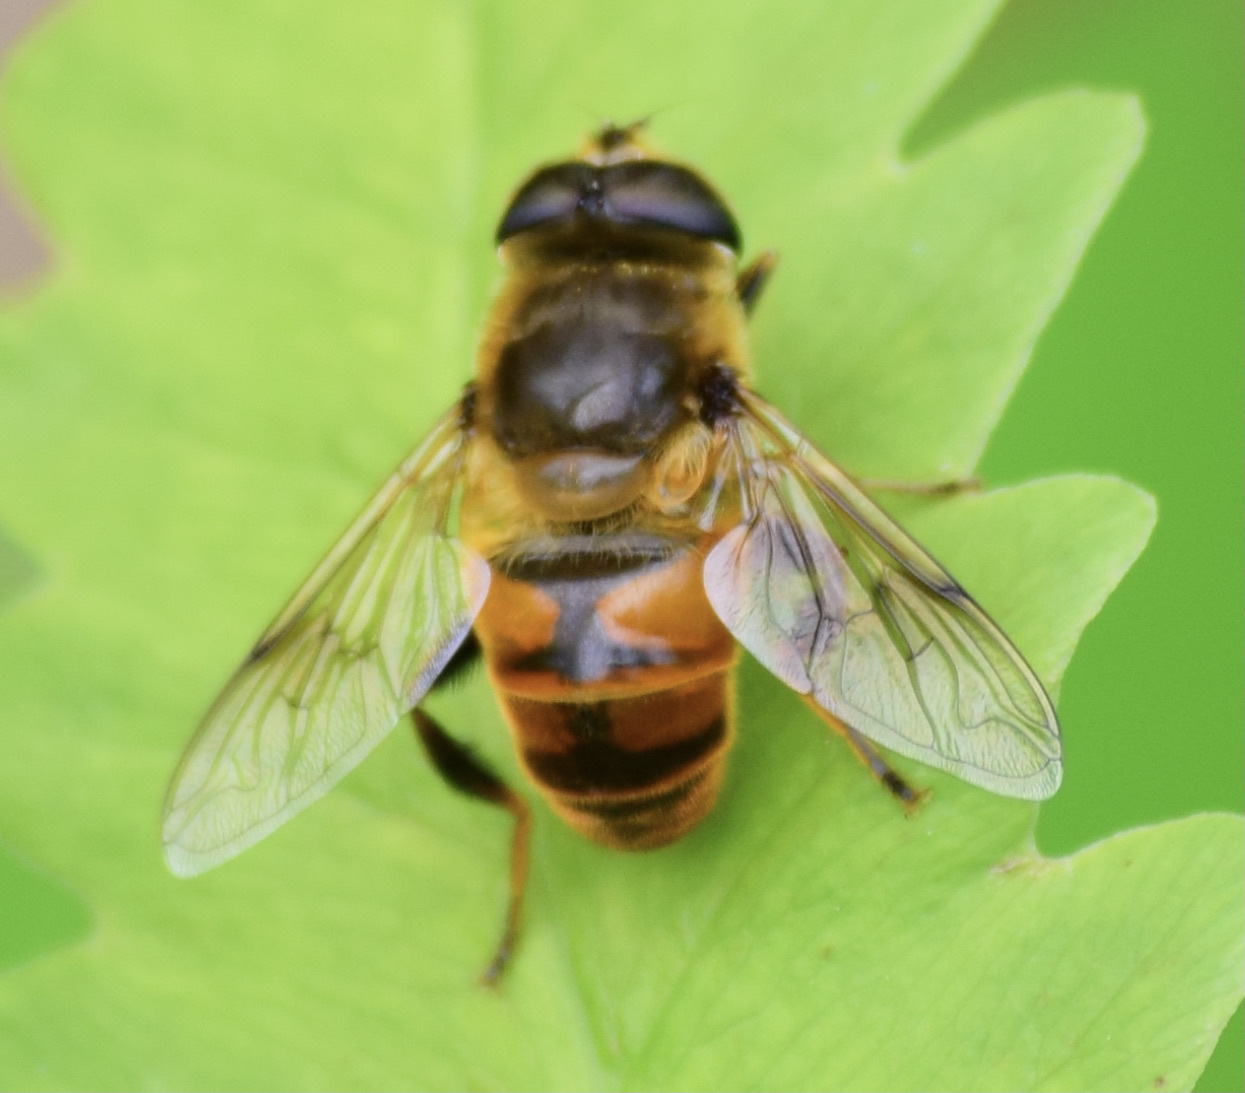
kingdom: Animalia
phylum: Arthropoda
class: Insecta
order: Diptera
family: Syrphidae
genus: Eristalis
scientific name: Eristalis tenax
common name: Drone fly
